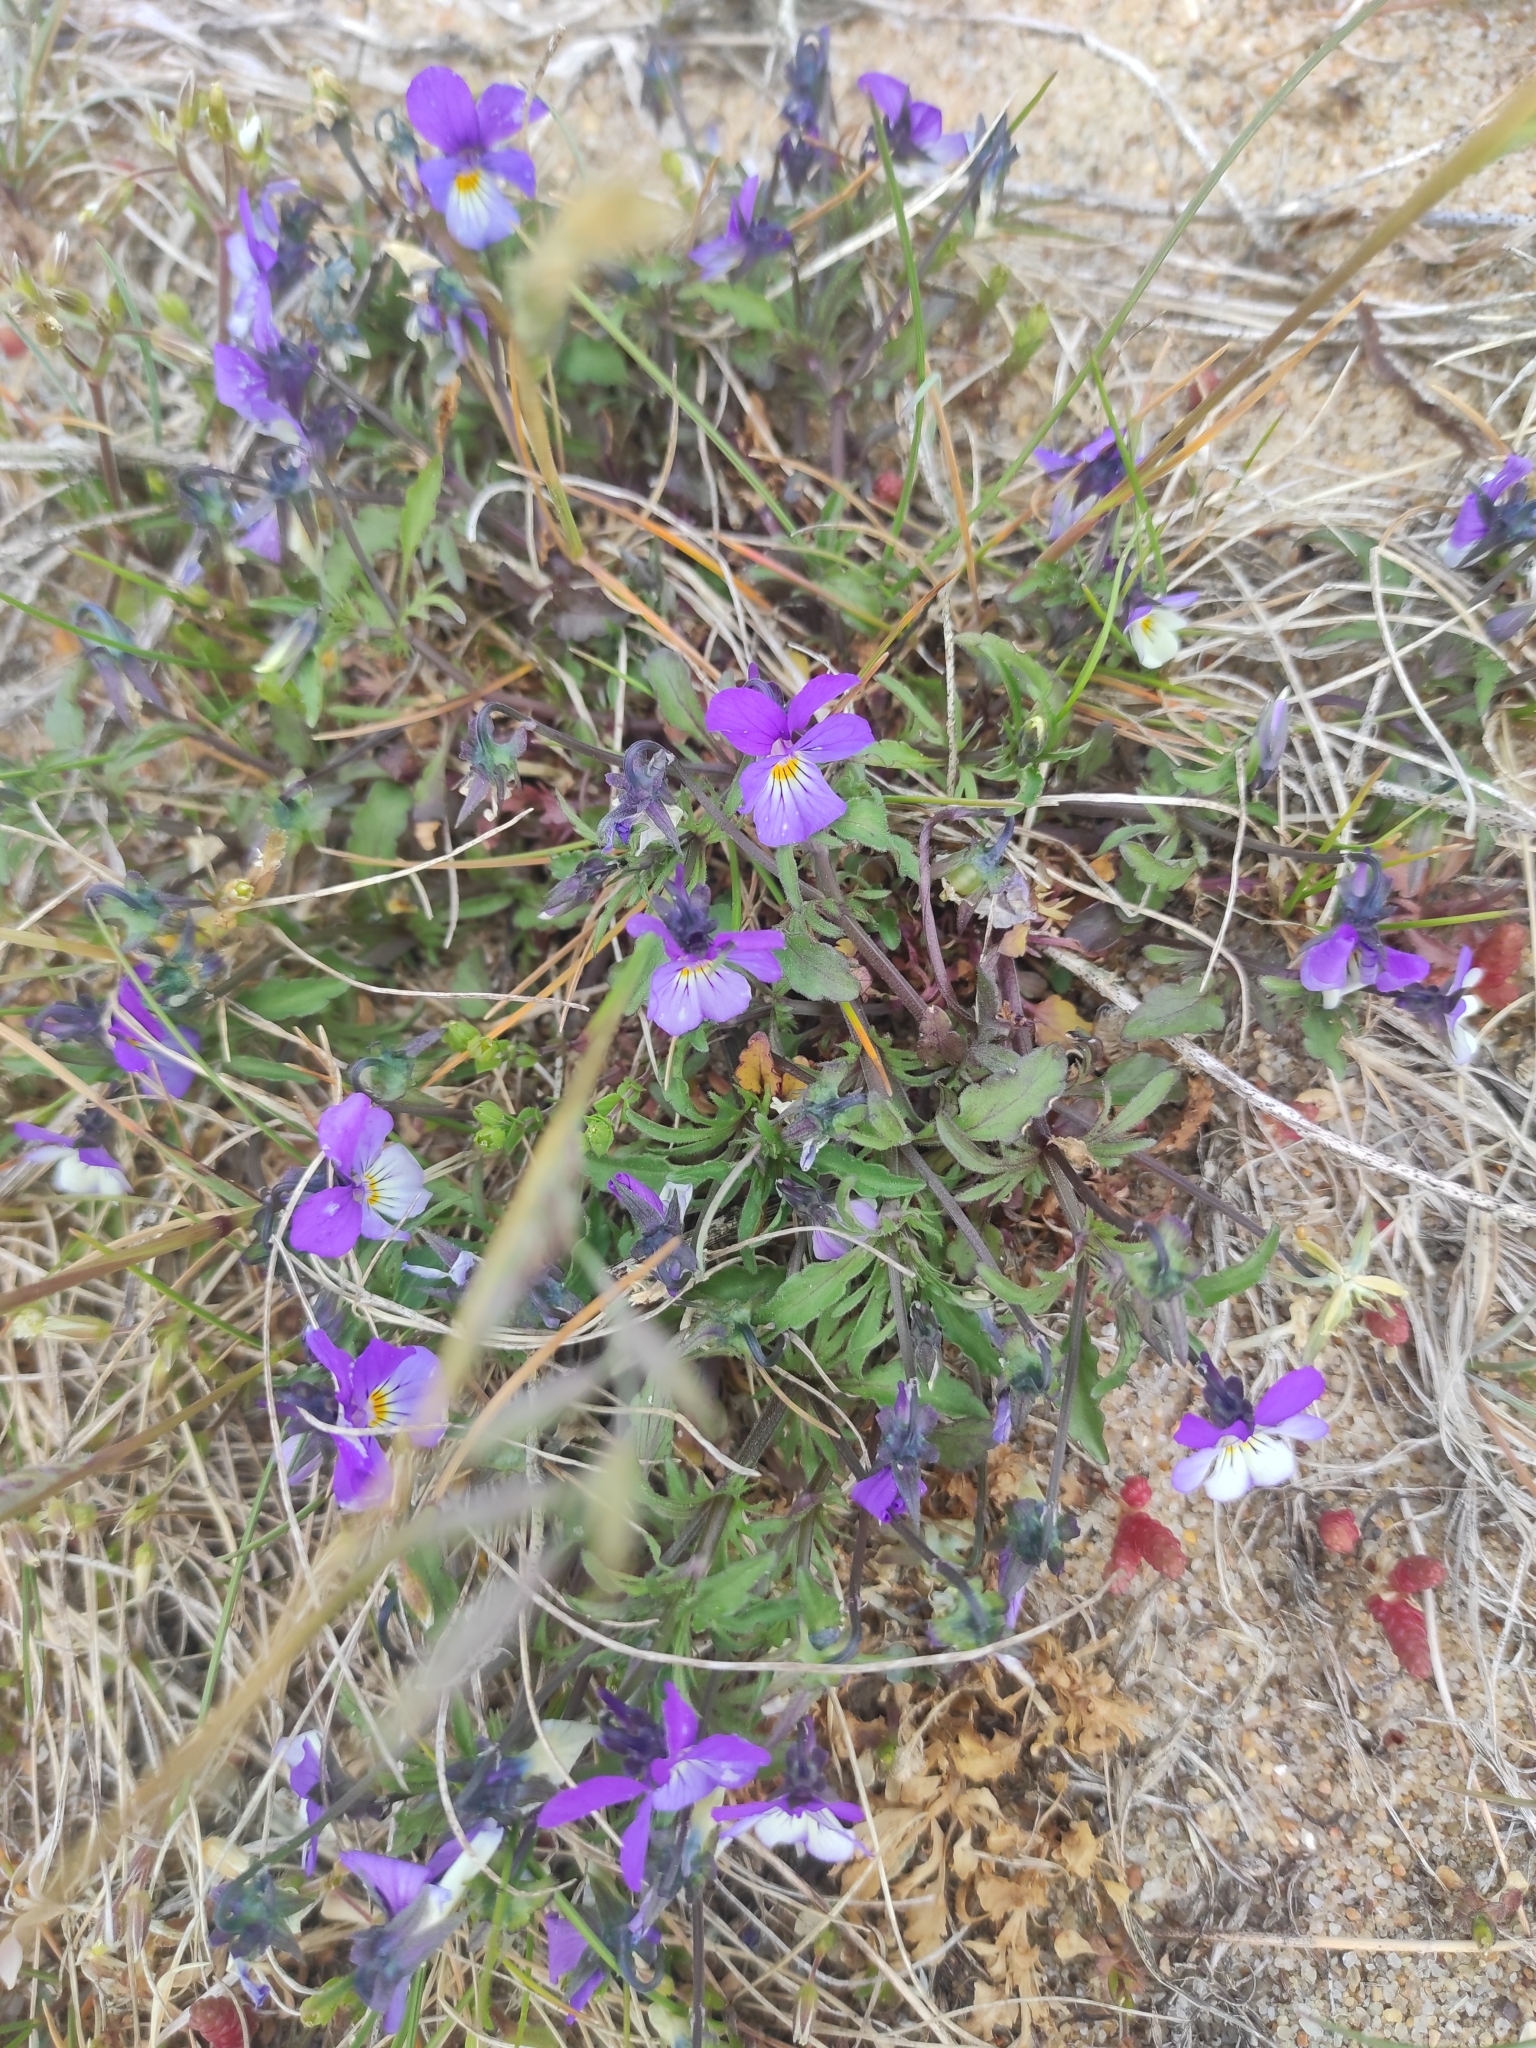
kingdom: Plantae
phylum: Tracheophyta
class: Magnoliopsida
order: Malpighiales
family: Violaceae
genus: Viola
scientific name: Viola tricolor
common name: Pansy
